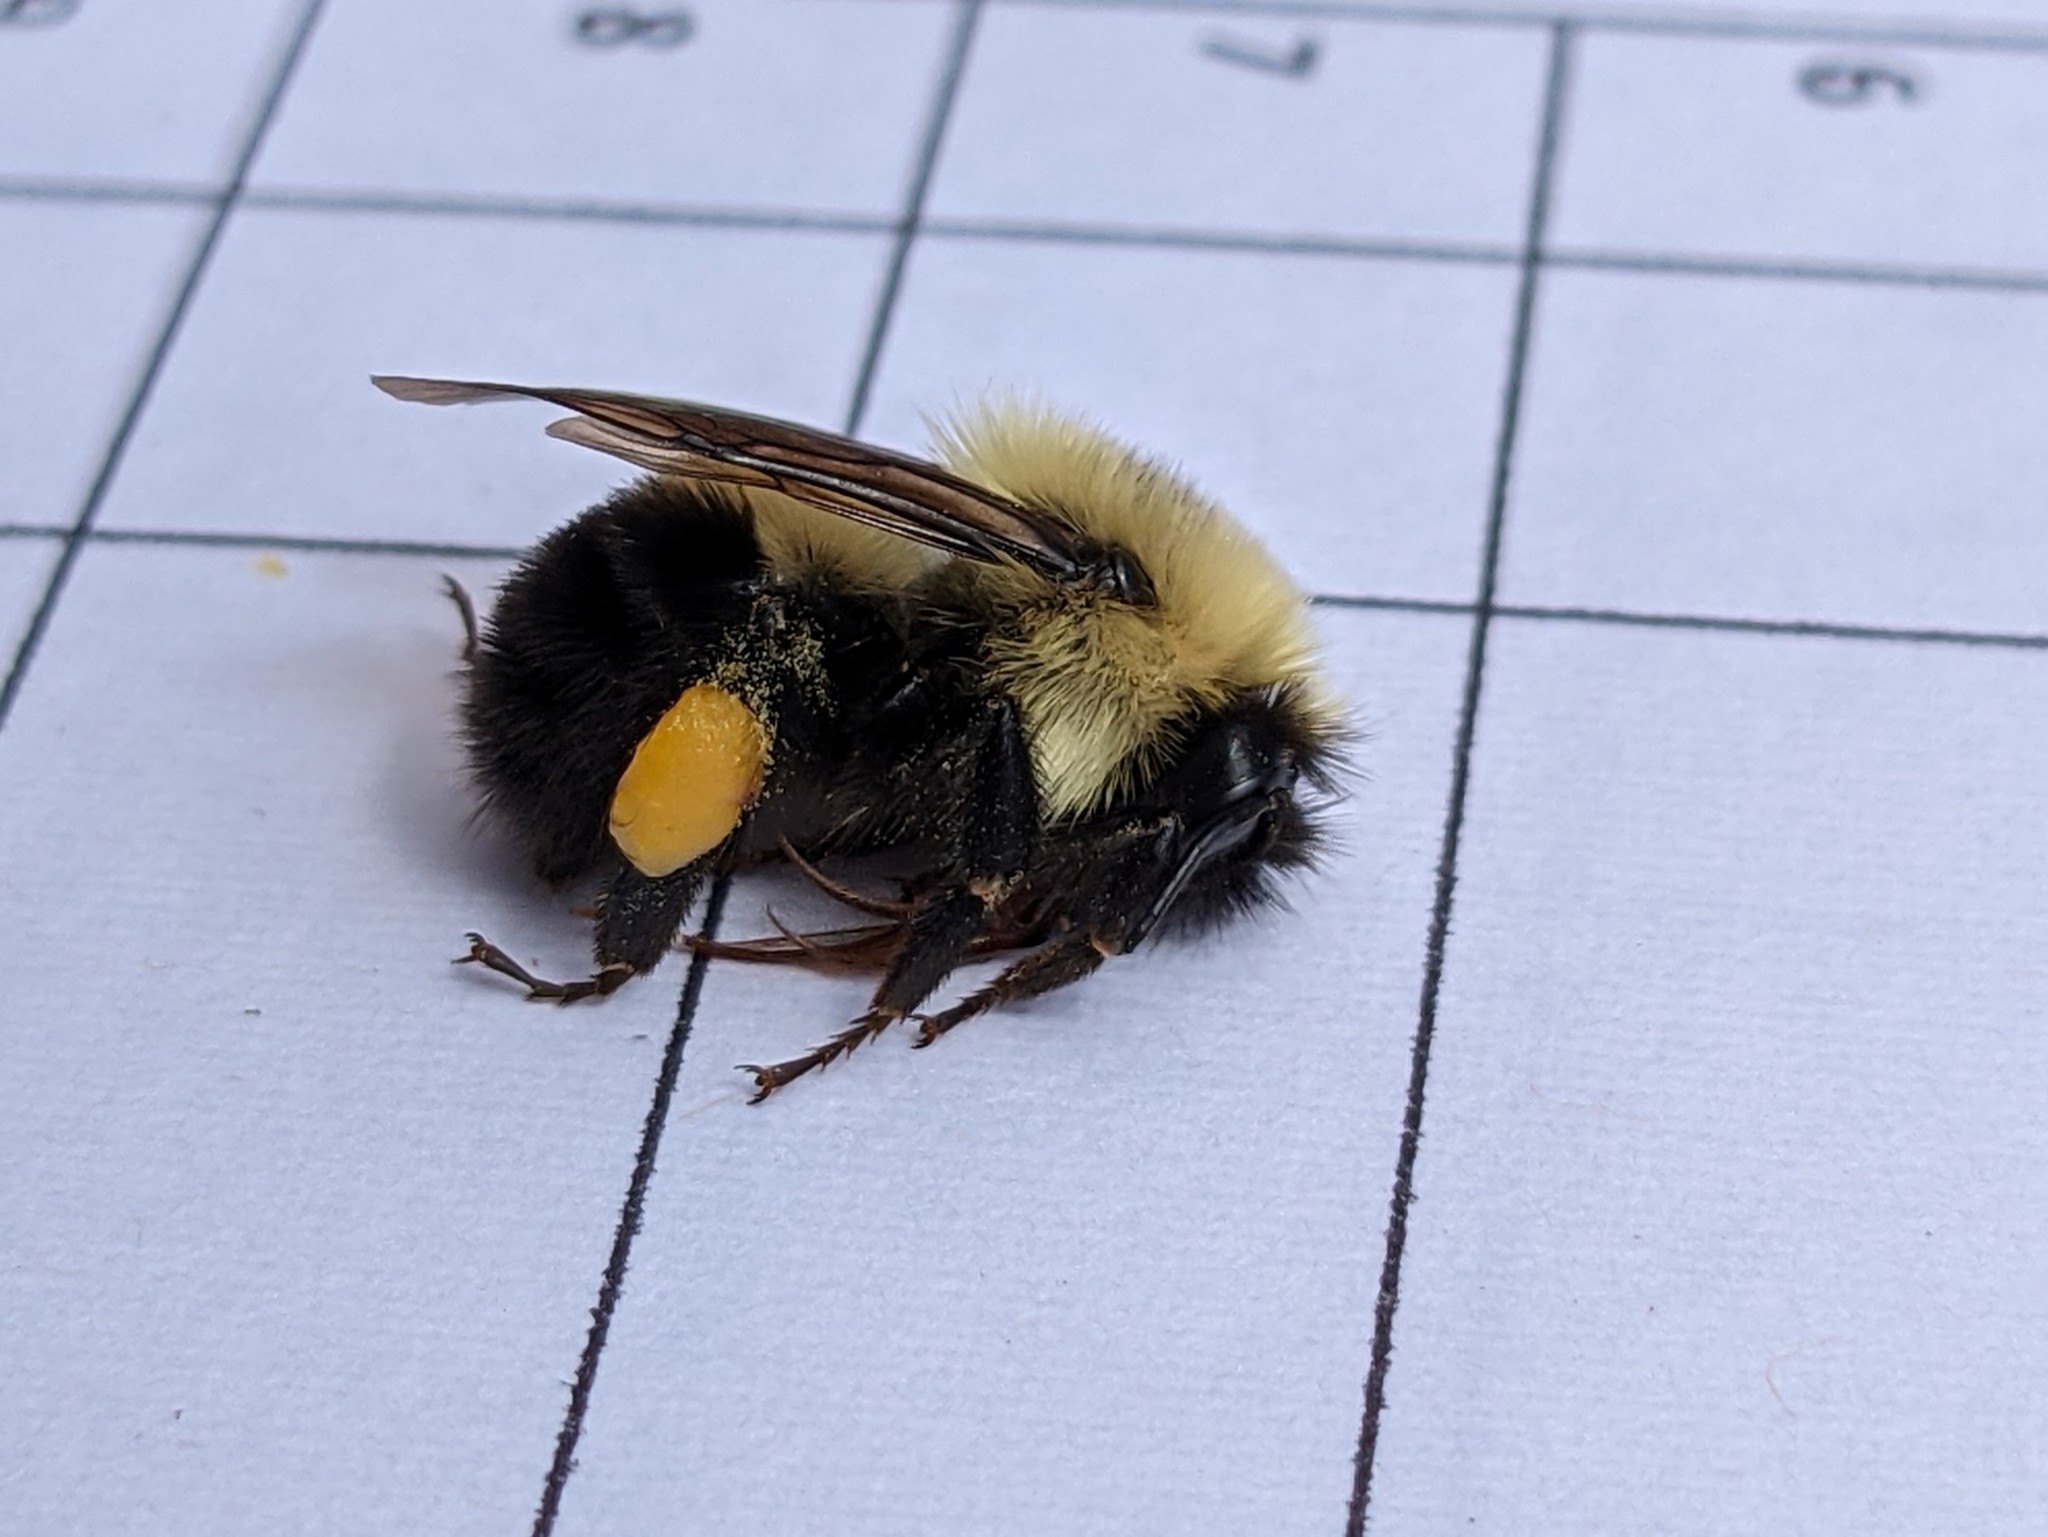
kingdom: Animalia
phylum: Arthropoda
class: Insecta
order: Hymenoptera
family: Apidae
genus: Bombus
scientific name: Bombus bimaculatus
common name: Two-spotted bumble bee
